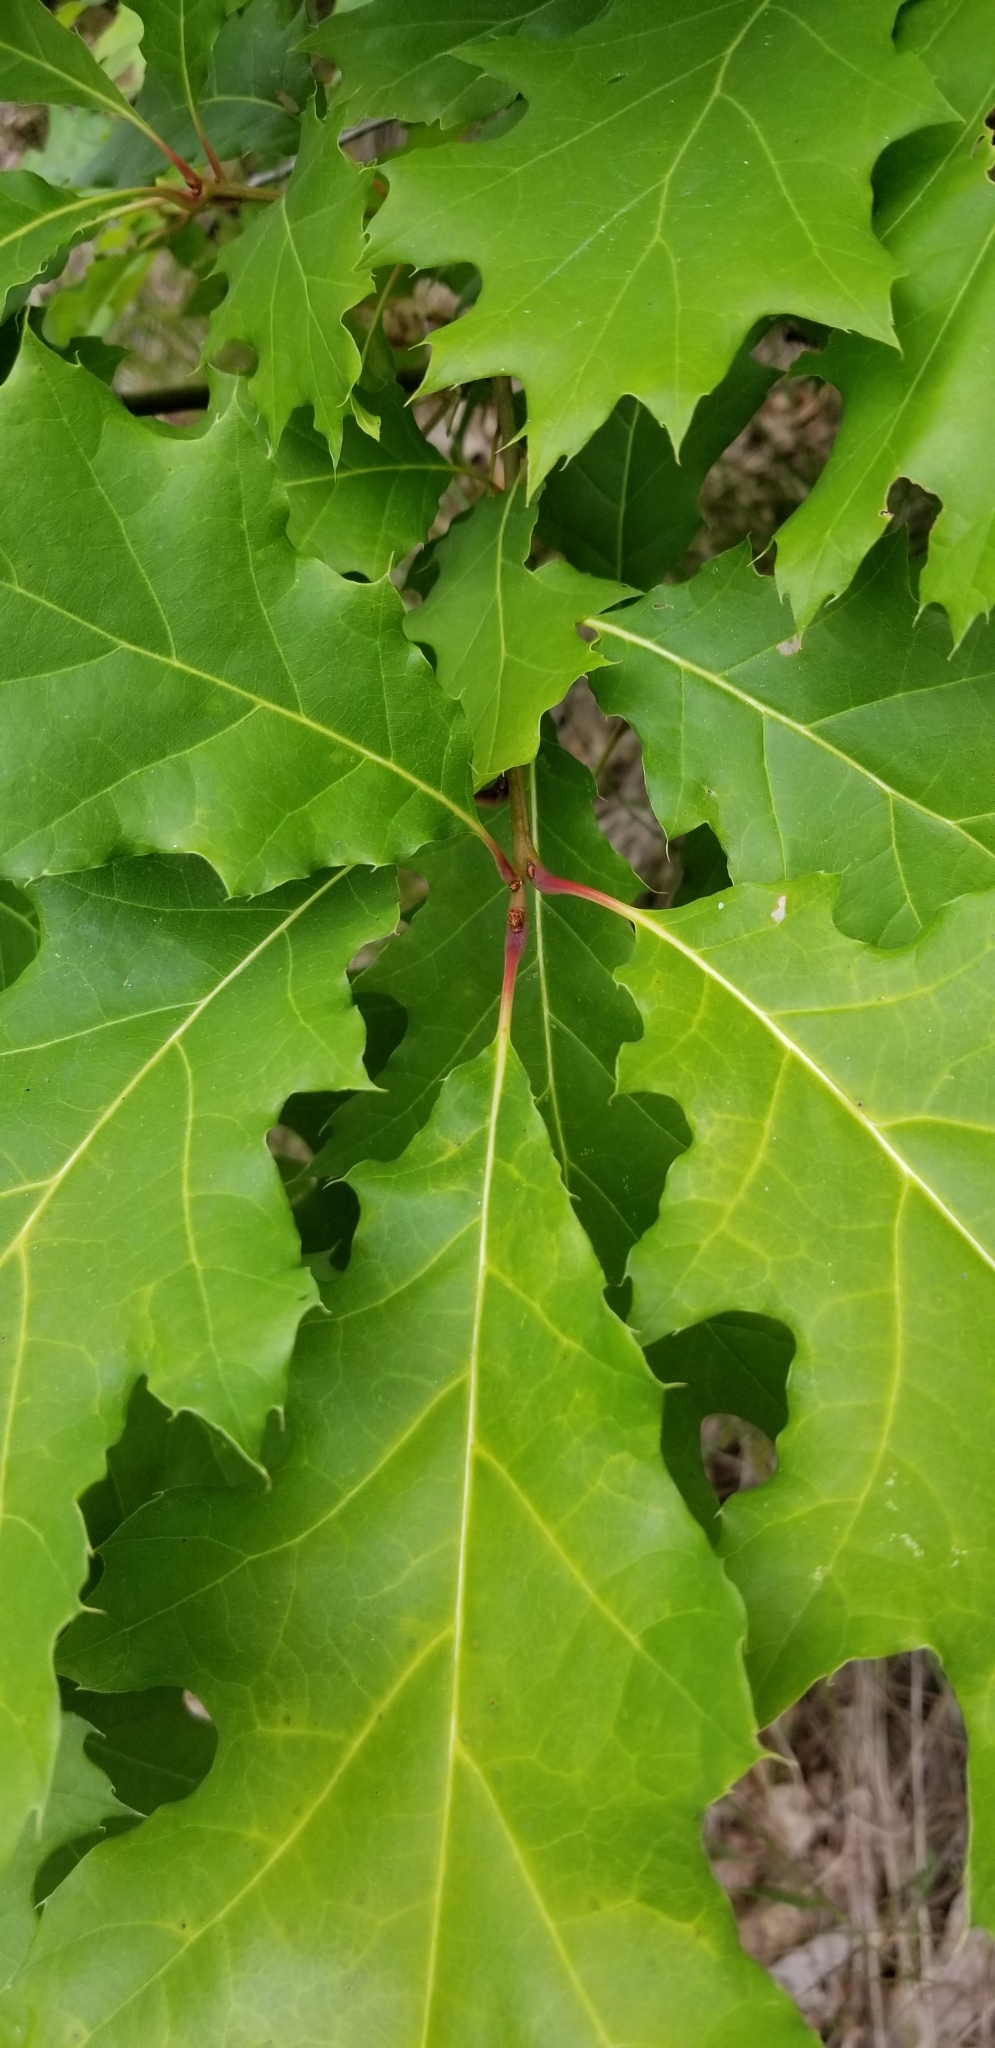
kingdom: Plantae
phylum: Tracheophyta
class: Magnoliopsida
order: Fagales
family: Fagaceae
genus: Quercus
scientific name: Quercus rubra
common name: Red oak
